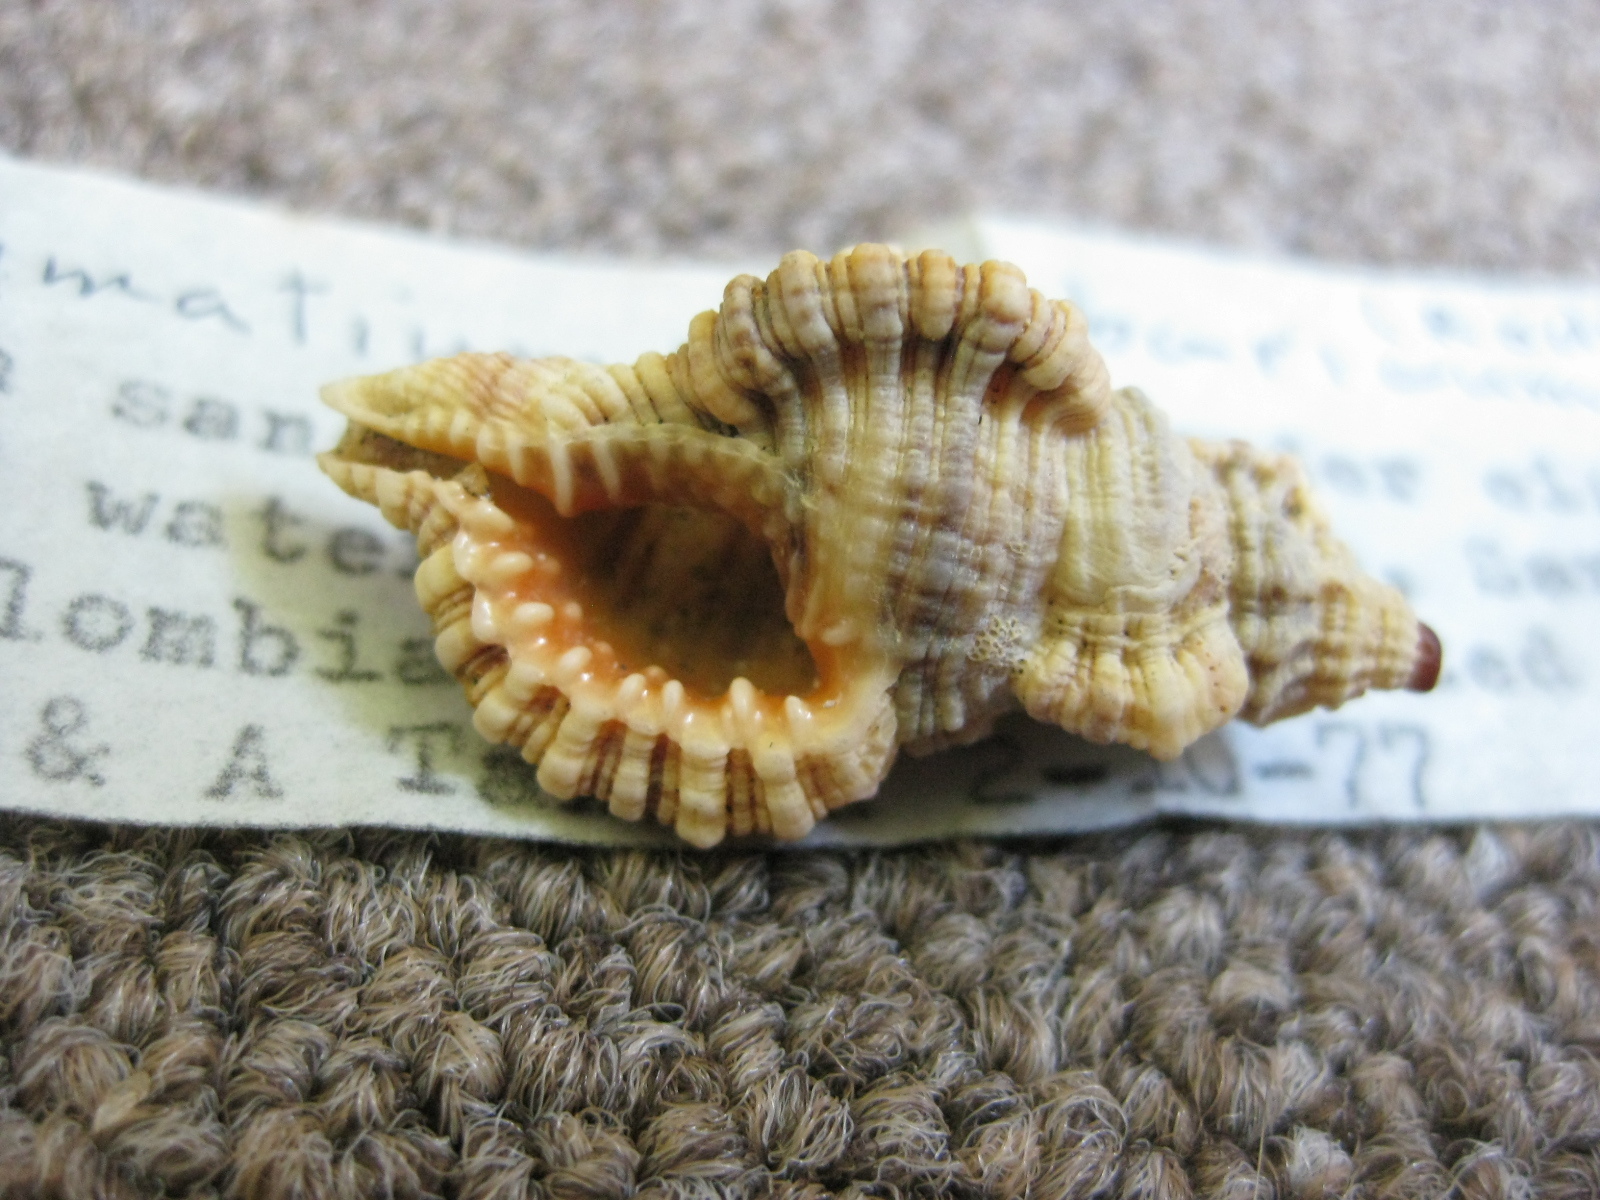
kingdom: Animalia
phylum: Mollusca
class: Gastropoda
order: Littorinimorpha
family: Cymatiidae
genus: Monoplex
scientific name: Monoplex nicobaricus
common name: Goldmouth triton
